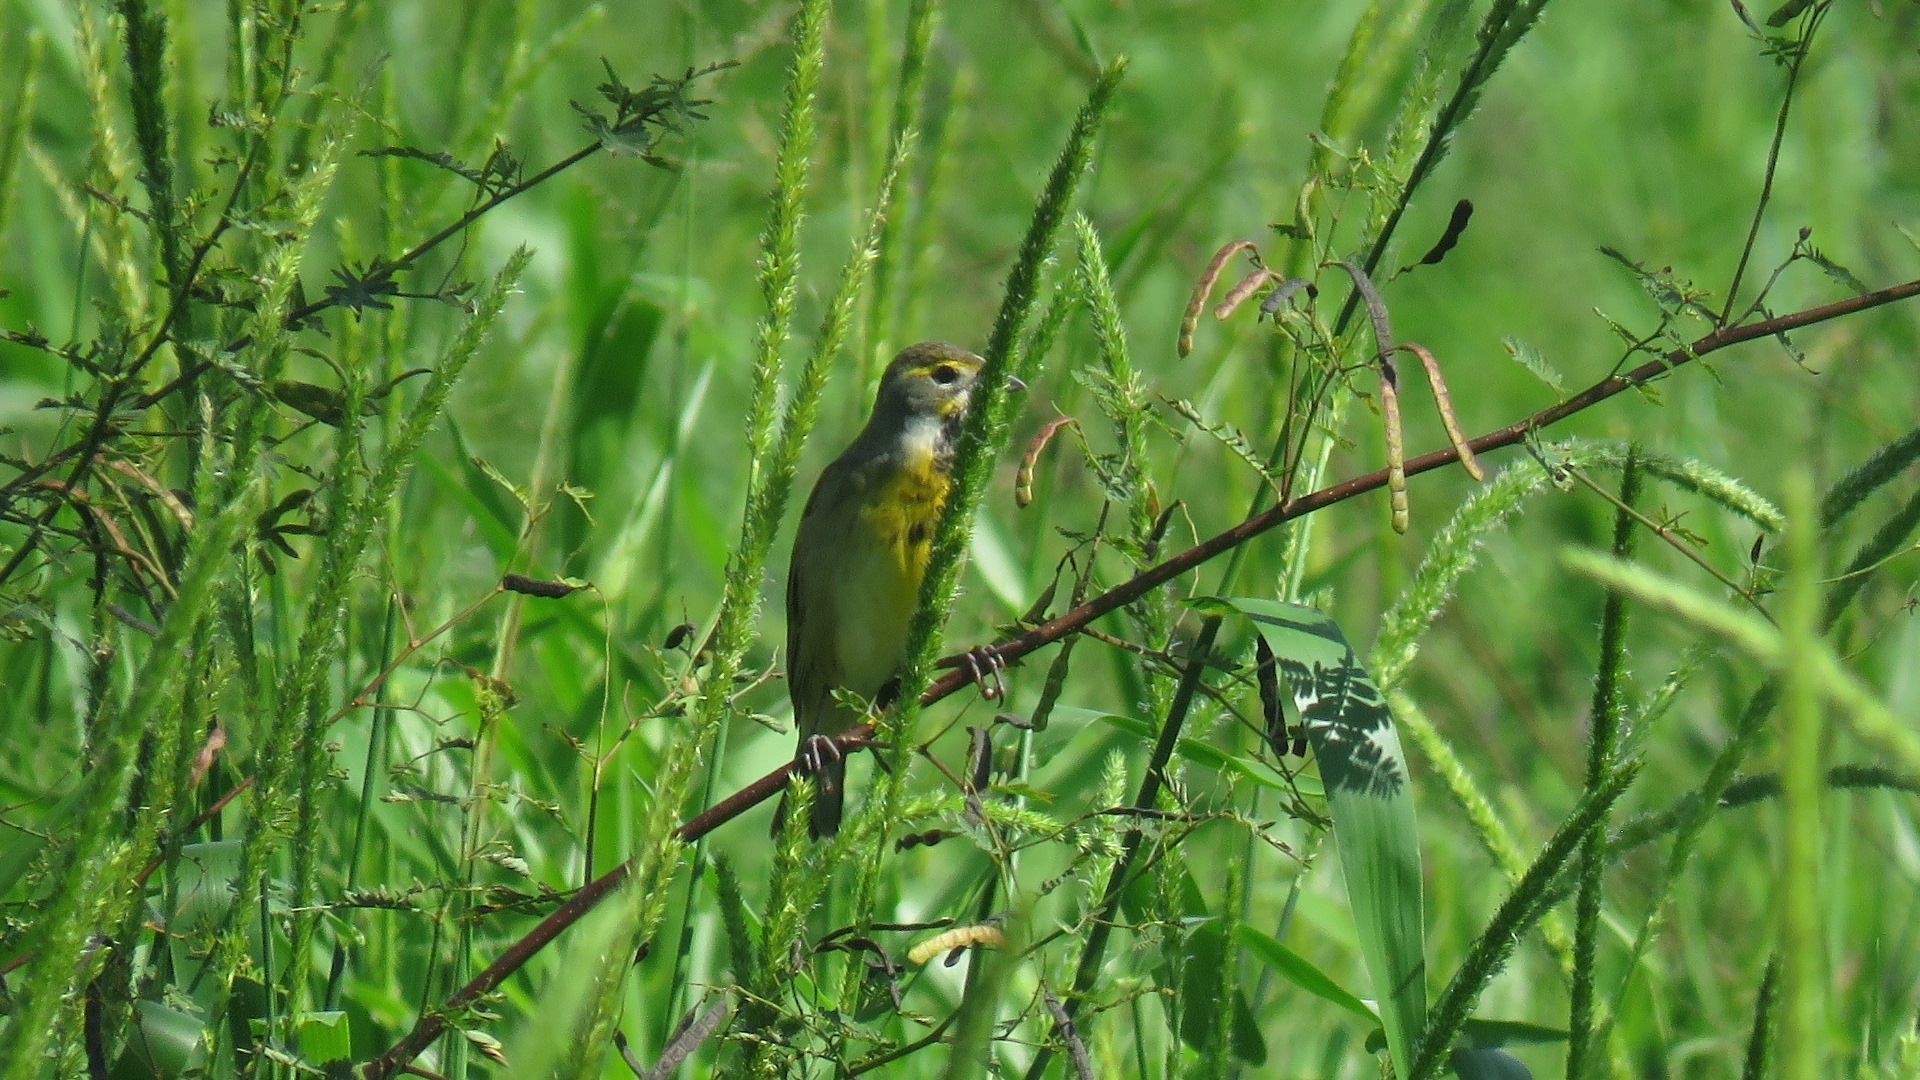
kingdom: Animalia
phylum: Chordata
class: Aves
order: Passeriformes
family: Cardinalidae
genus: Spiza
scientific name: Spiza americana
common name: Dickcissel
